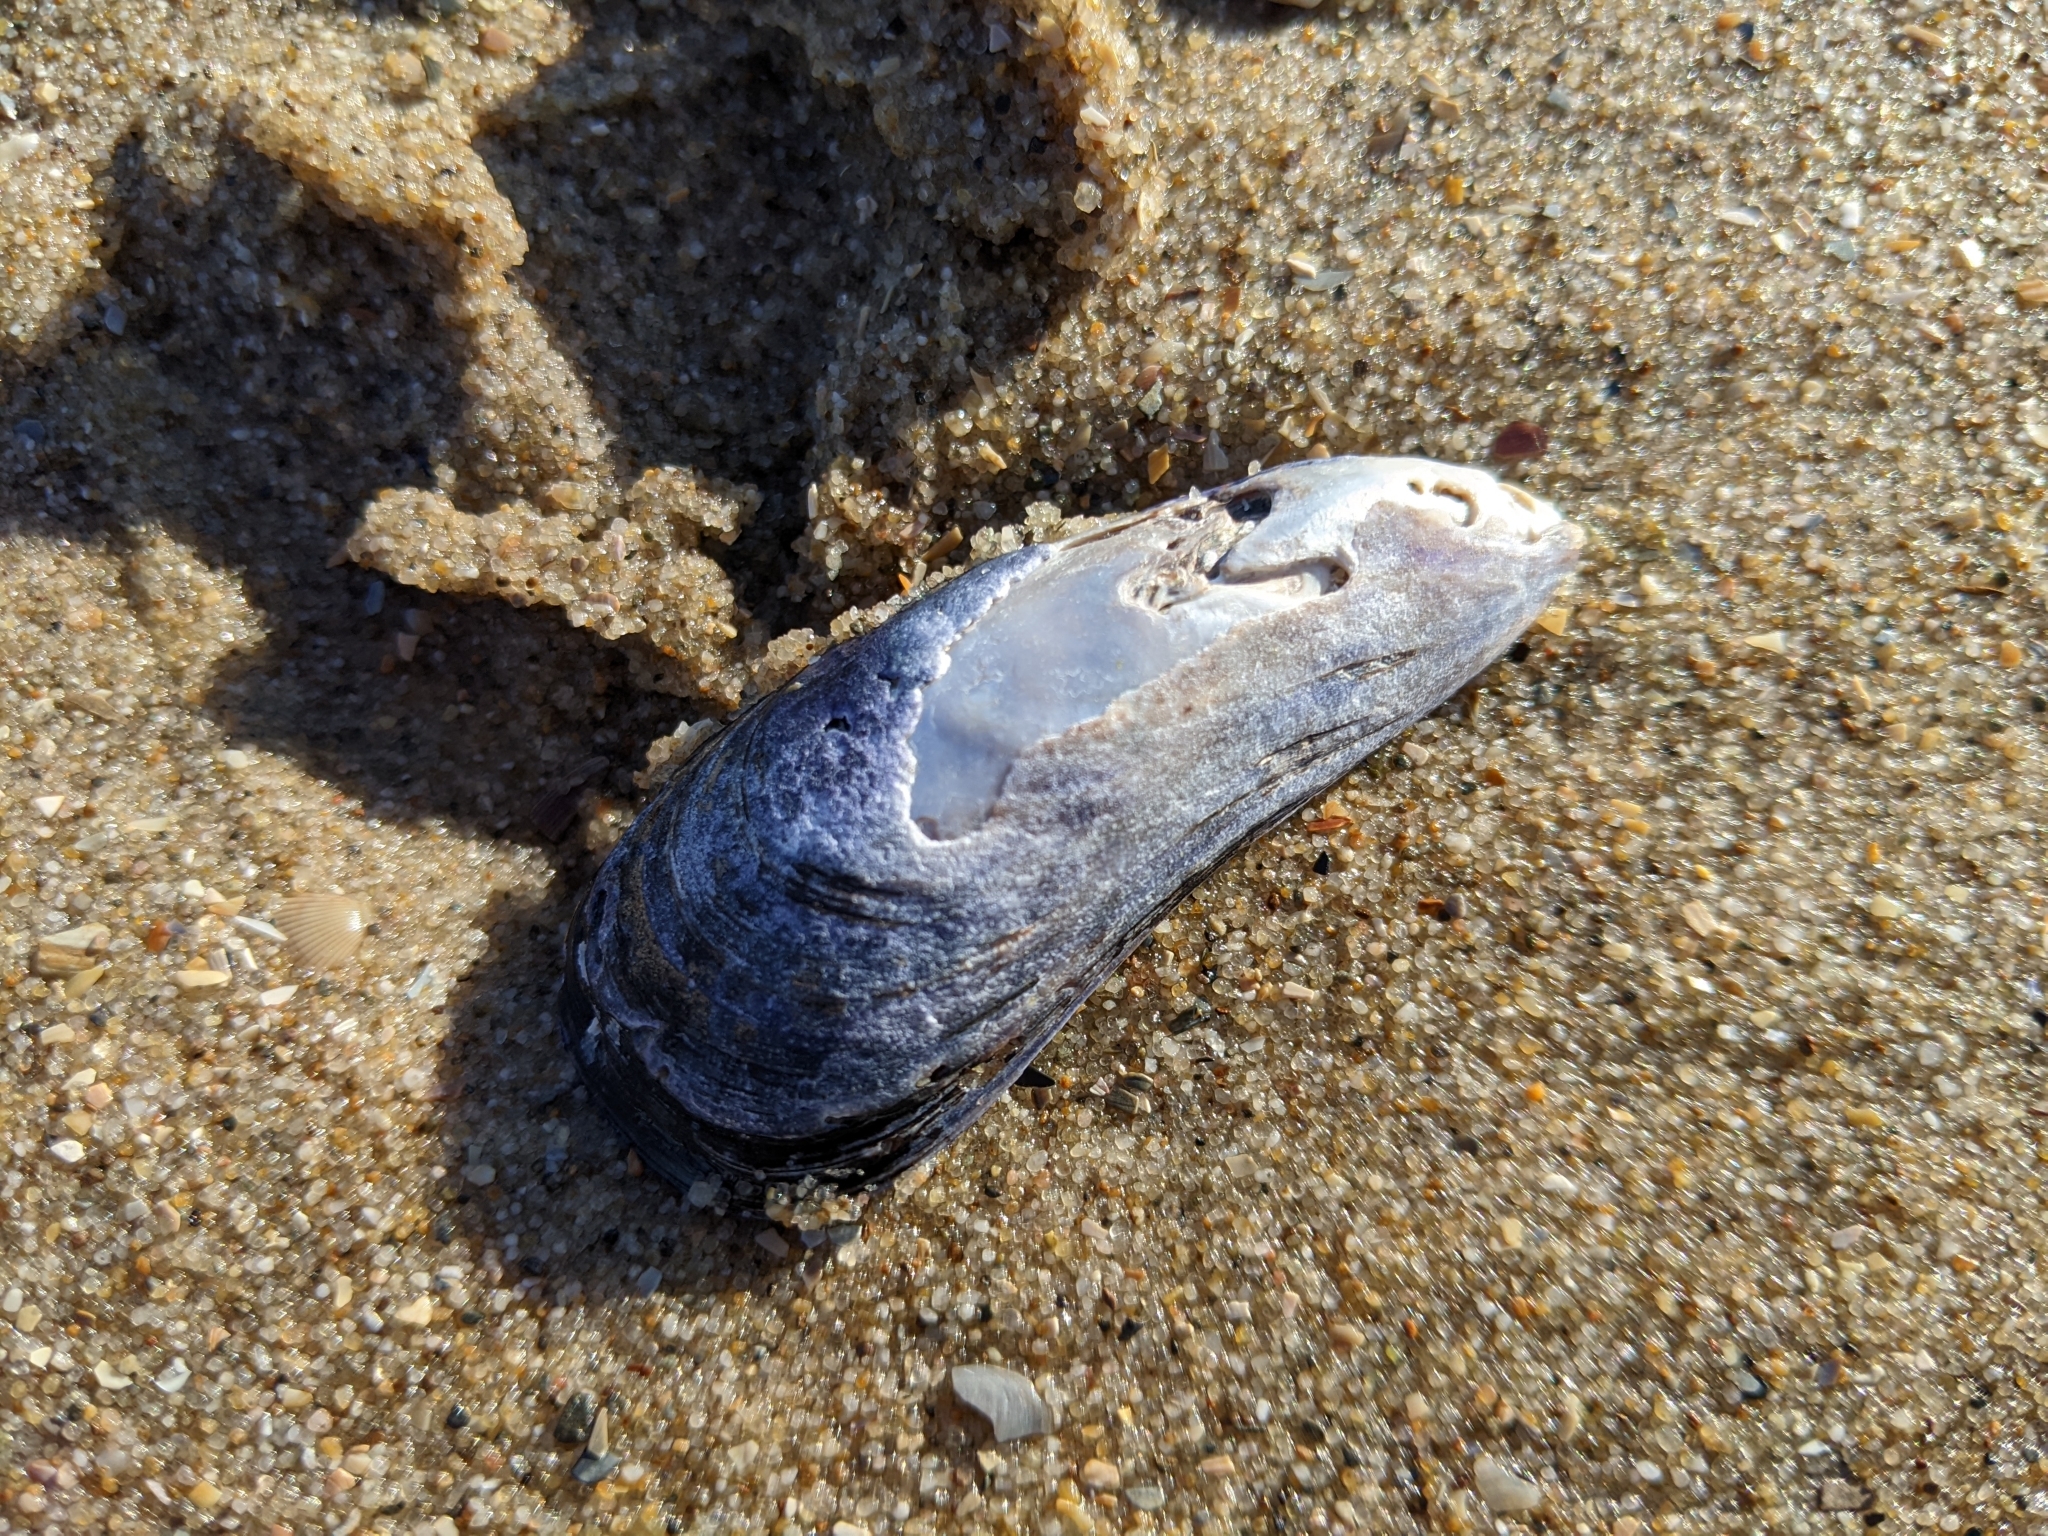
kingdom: Animalia
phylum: Mollusca
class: Bivalvia
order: Mytilida
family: Mytilidae
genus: Mytilus
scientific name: Mytilus edulis
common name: Blue mussel
